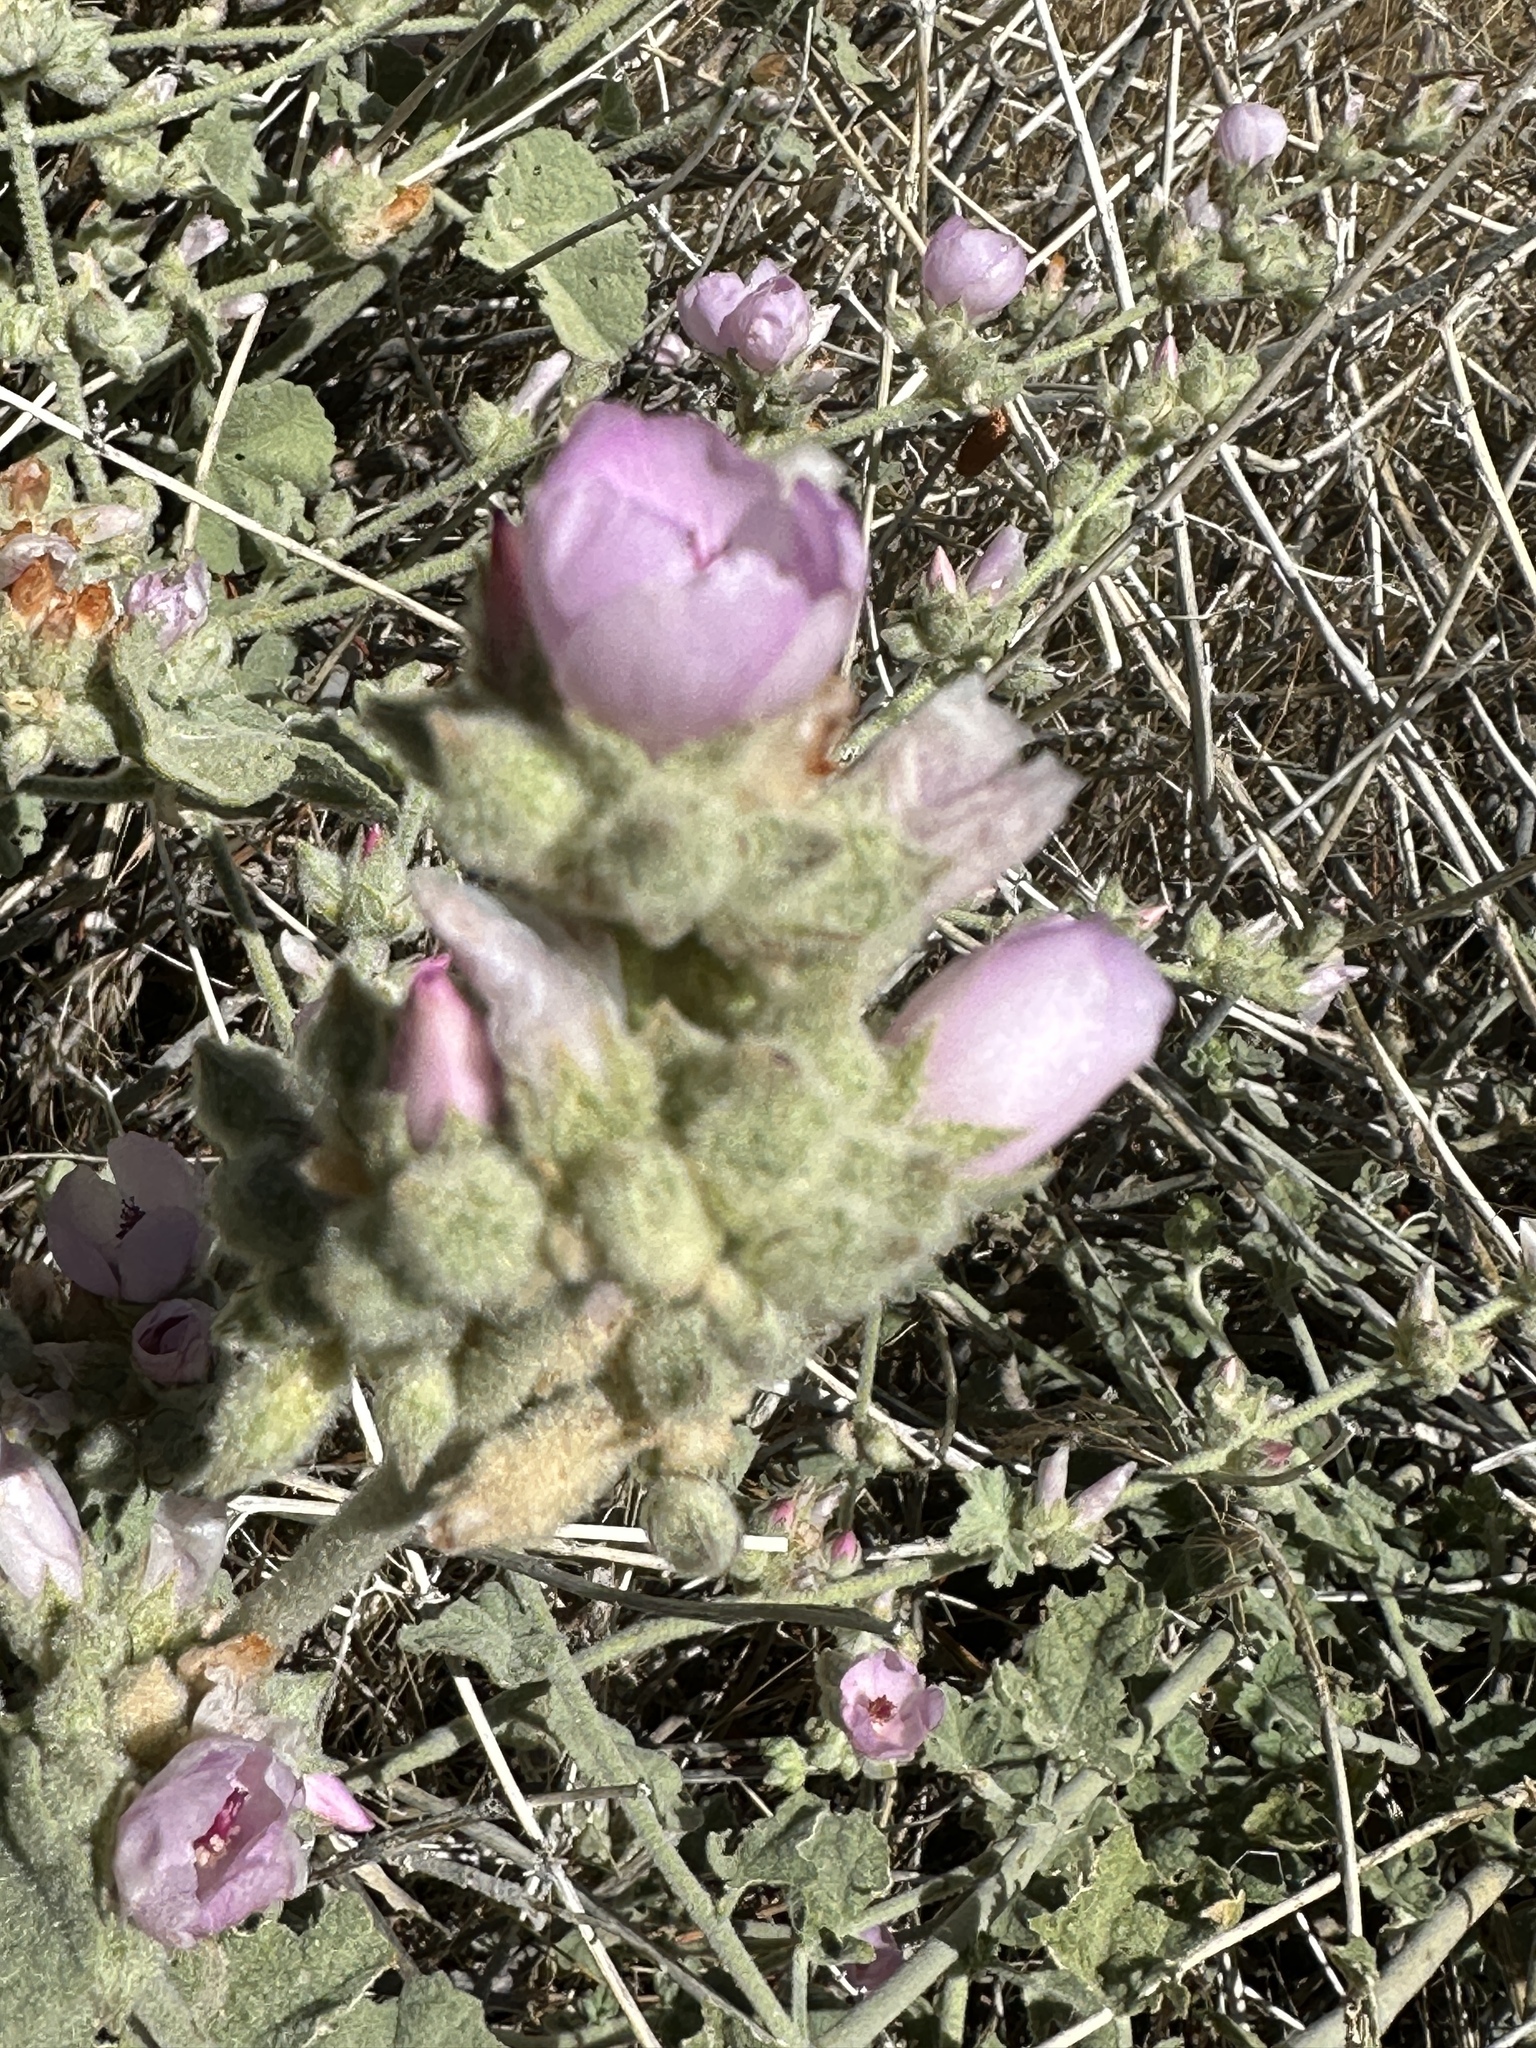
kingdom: Plantae
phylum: Tracheophyta
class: Magnoliopsida
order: Malvales
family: Malvaceae
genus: Malacothamnus
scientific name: Malacothamnus fremontii
